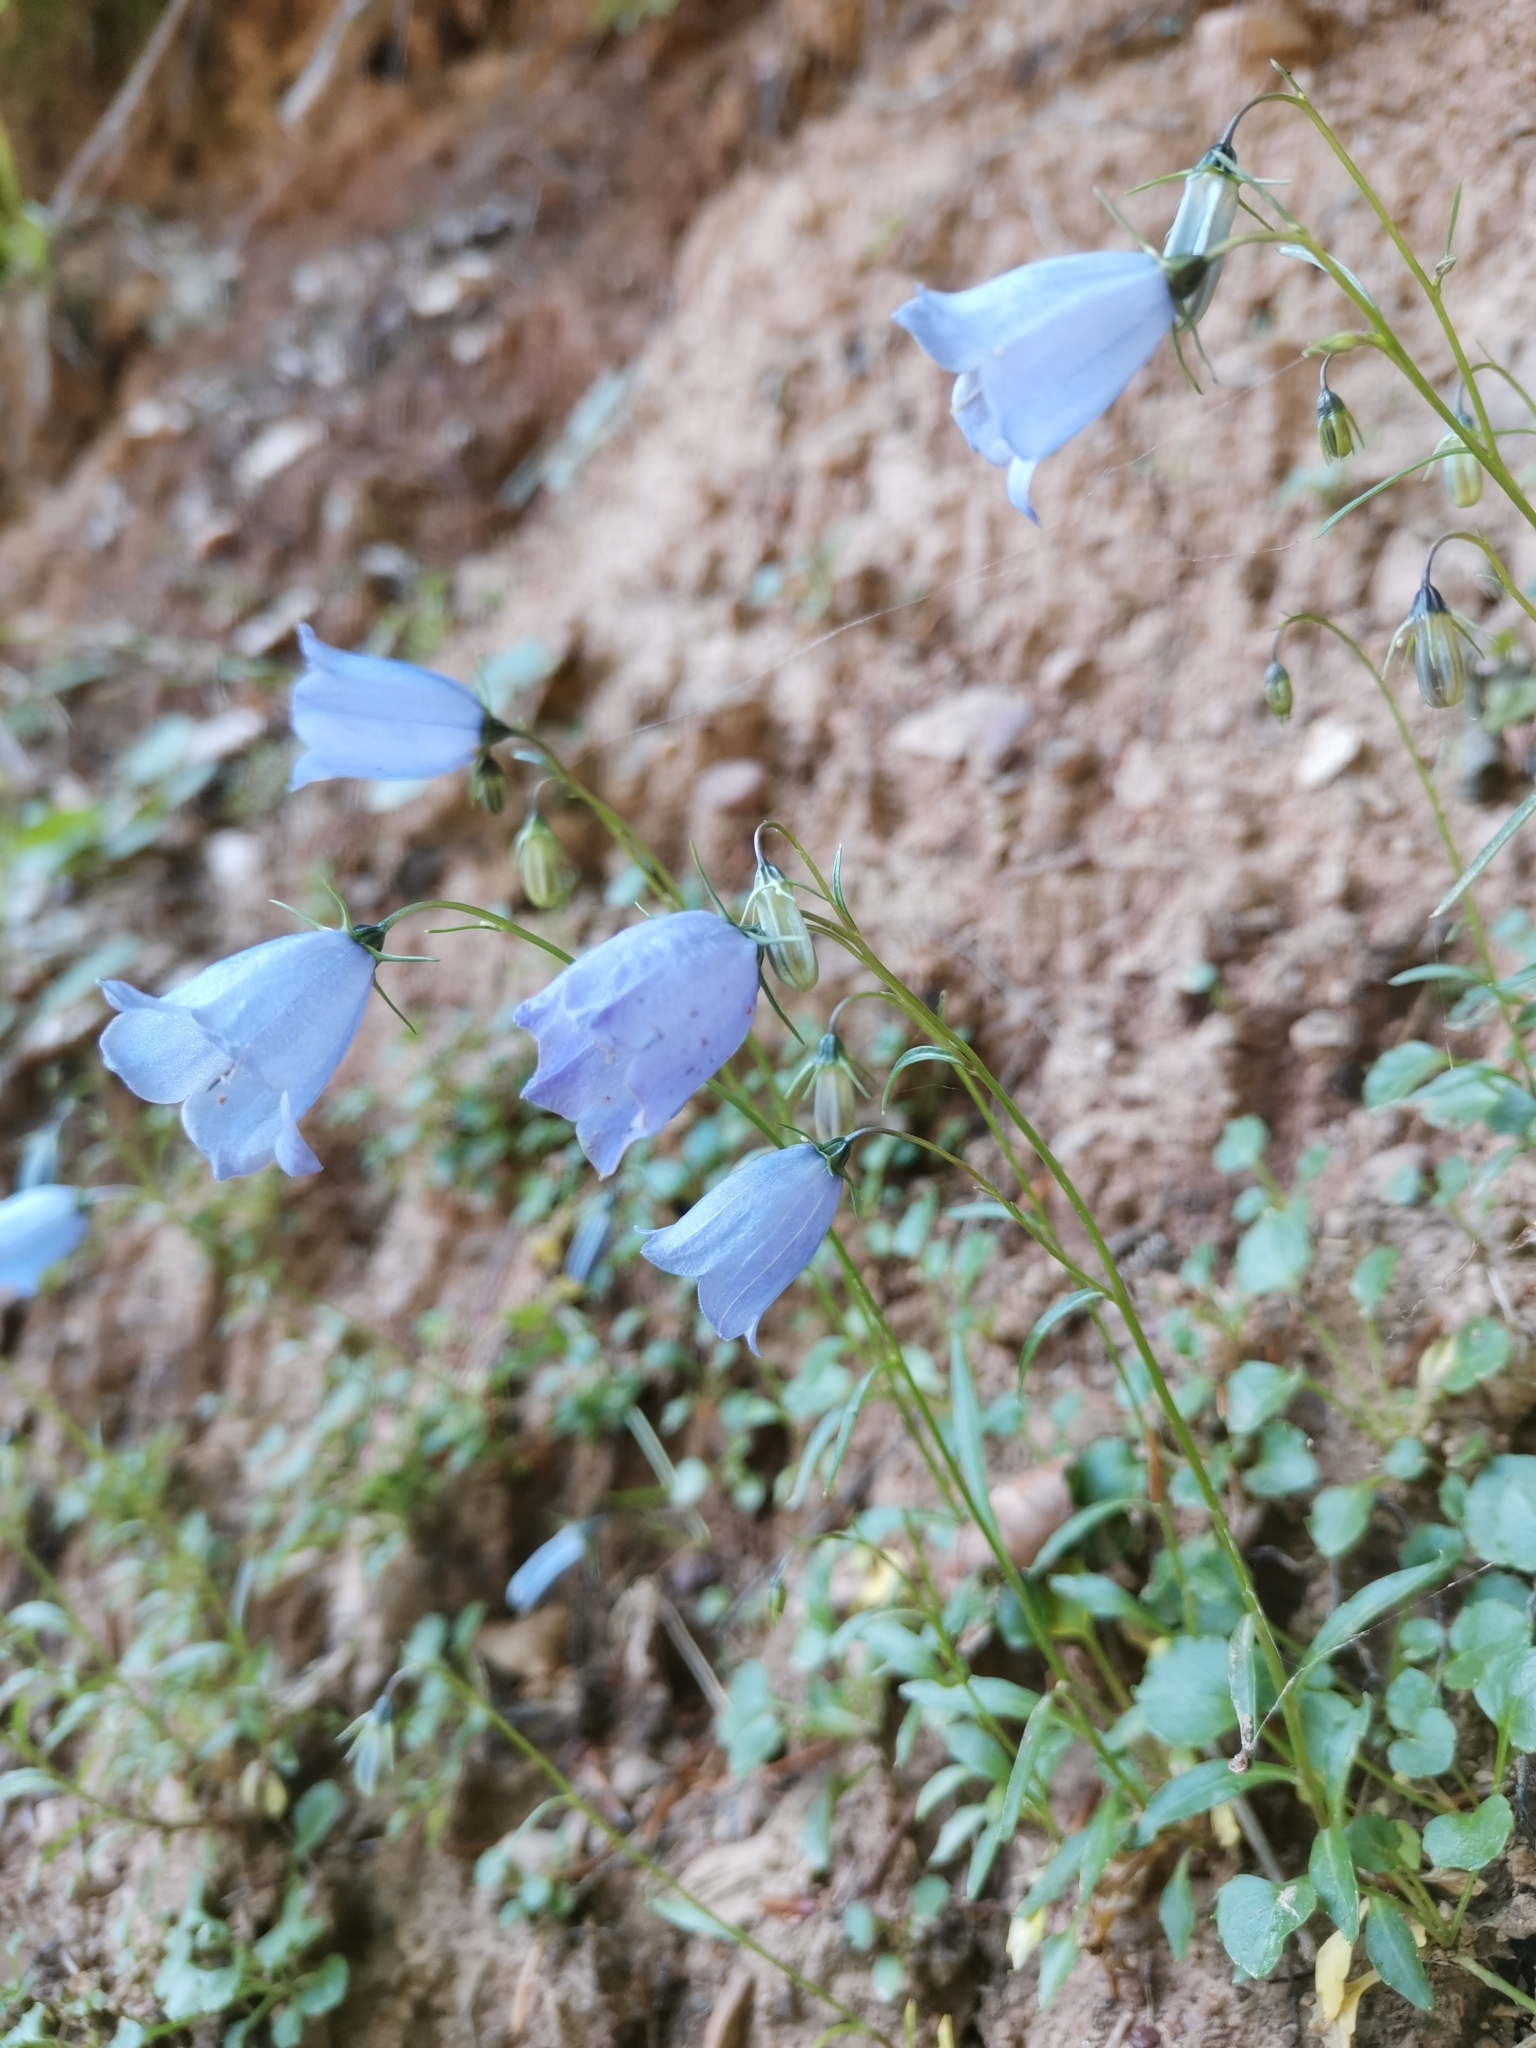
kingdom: Plantae
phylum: Tracheophyta
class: Magnoliopsida
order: Asterales
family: Campanulaceae
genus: Campanula
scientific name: Campanula cochleariifolia
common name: Fairies'-thimbles
